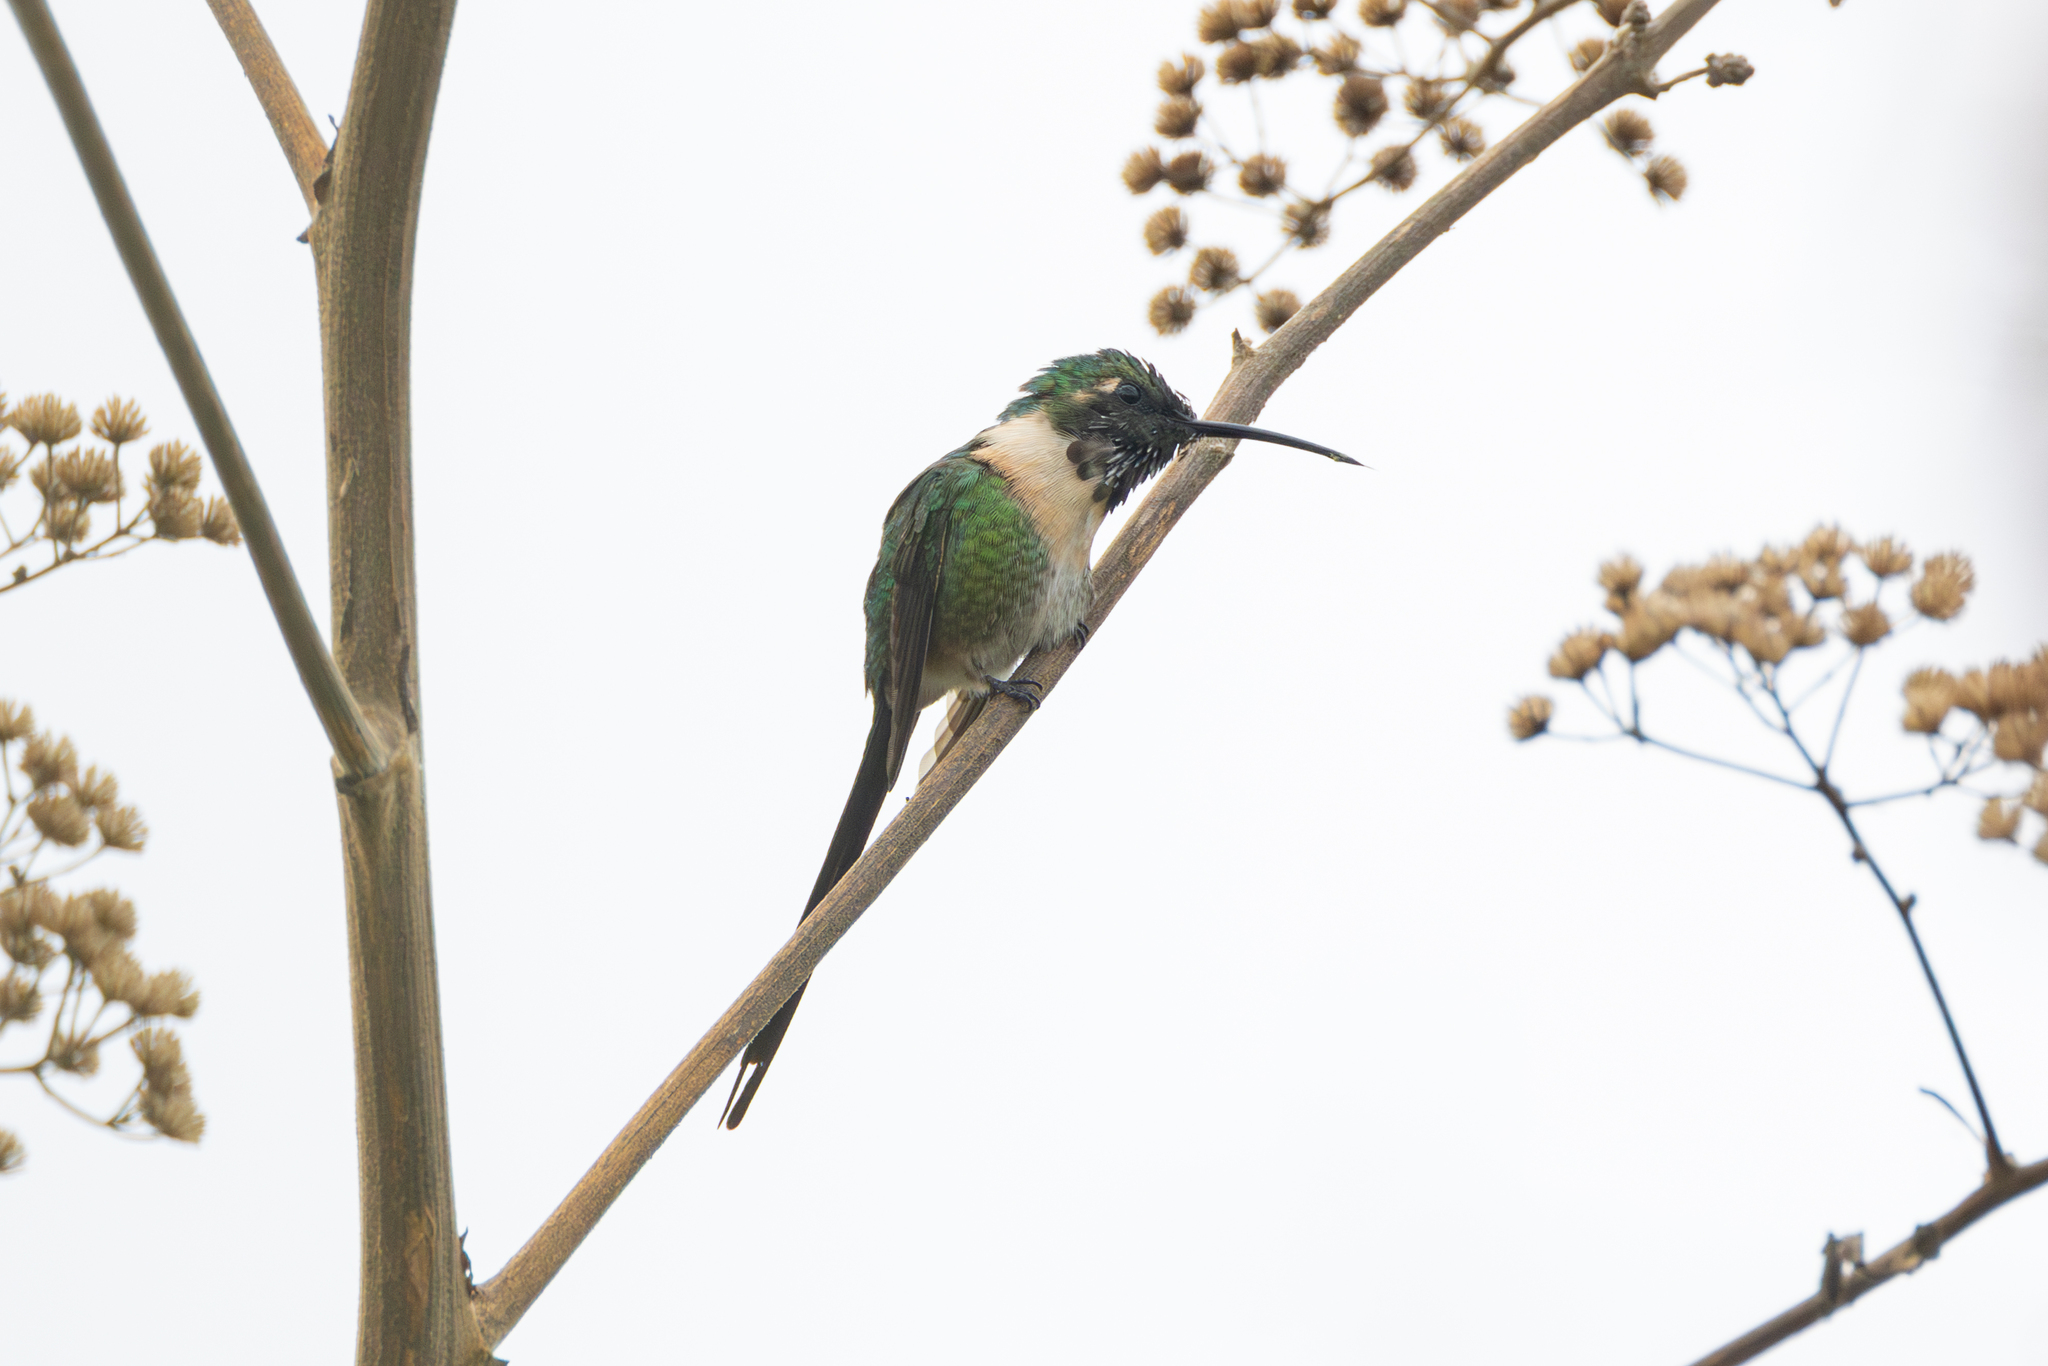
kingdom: Animalia
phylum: Chordata
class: Aves
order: Apodiformes
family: Trochilidae
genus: Doricha
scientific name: Doricha enicura
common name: Slender sheartail
